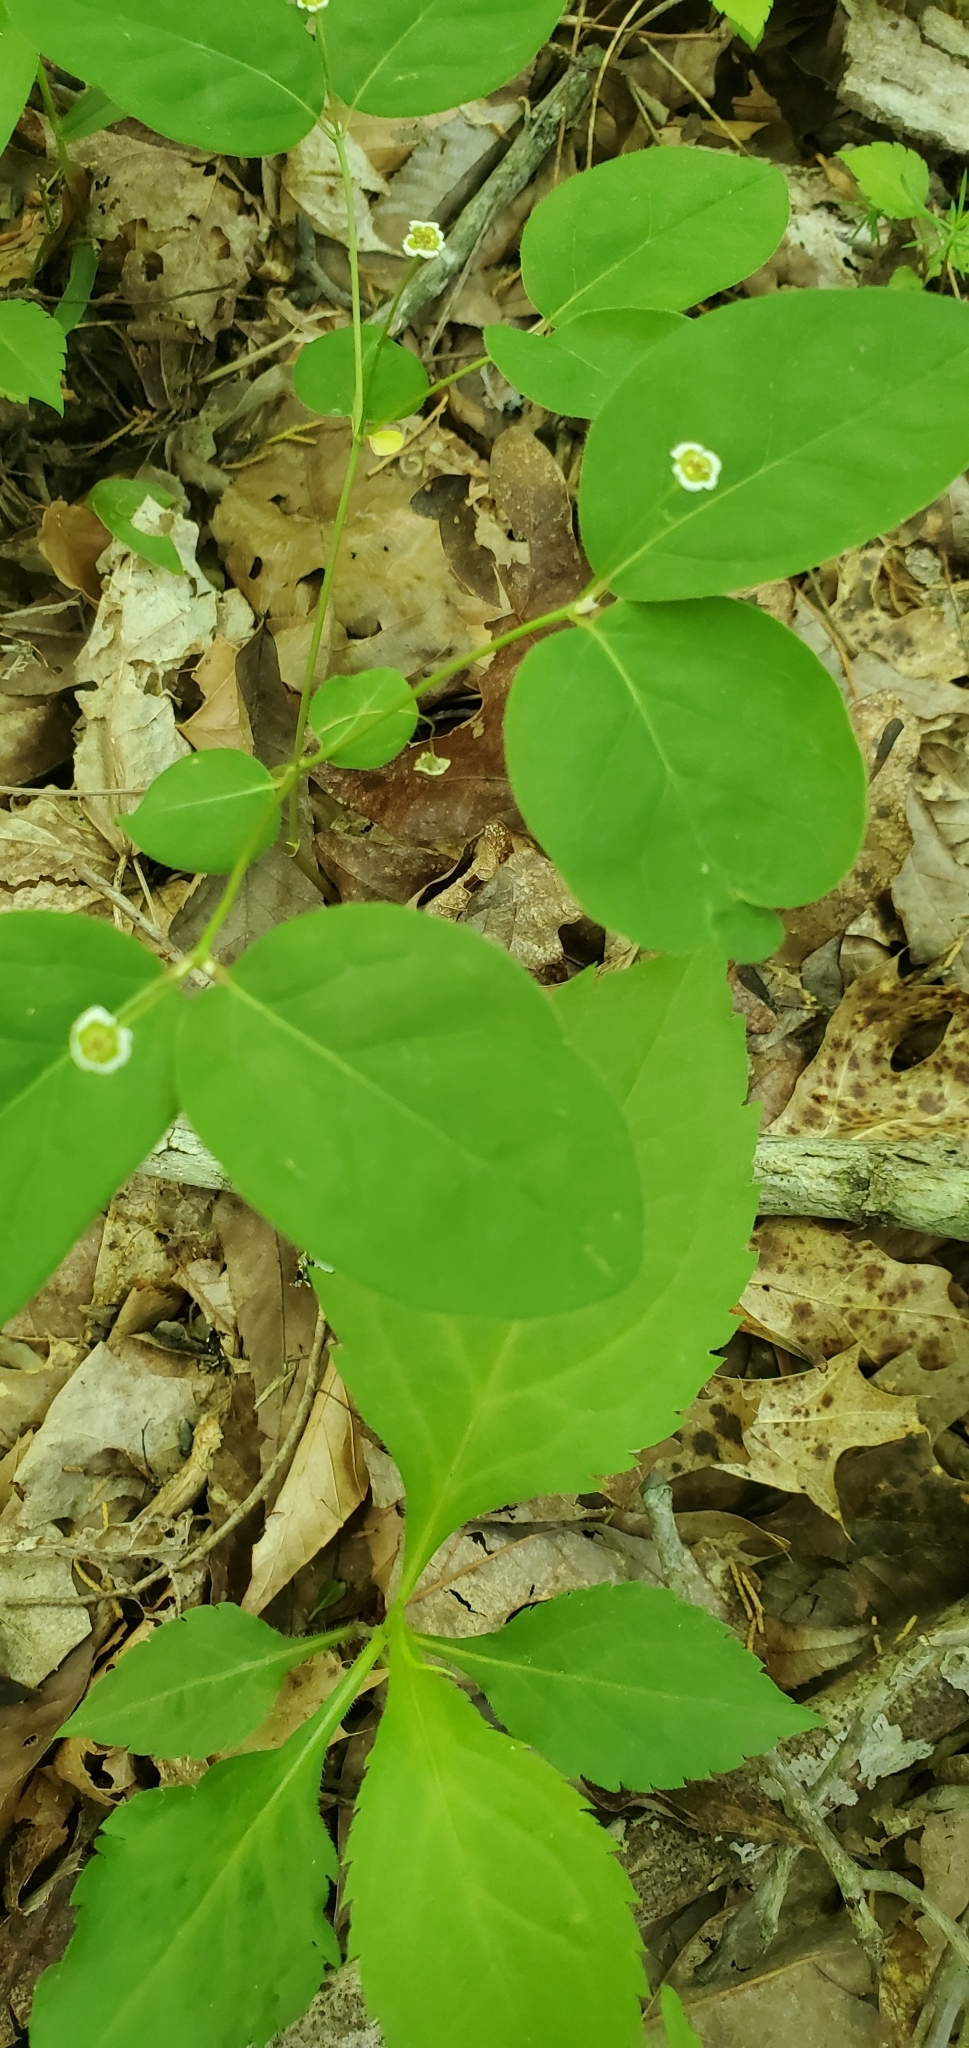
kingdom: Plantae
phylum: Tracheophyta
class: Magnoliopsida
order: Malpighiales
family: Euphorbiaceae
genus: Euphorbia
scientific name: Euphorbia mercurialina
